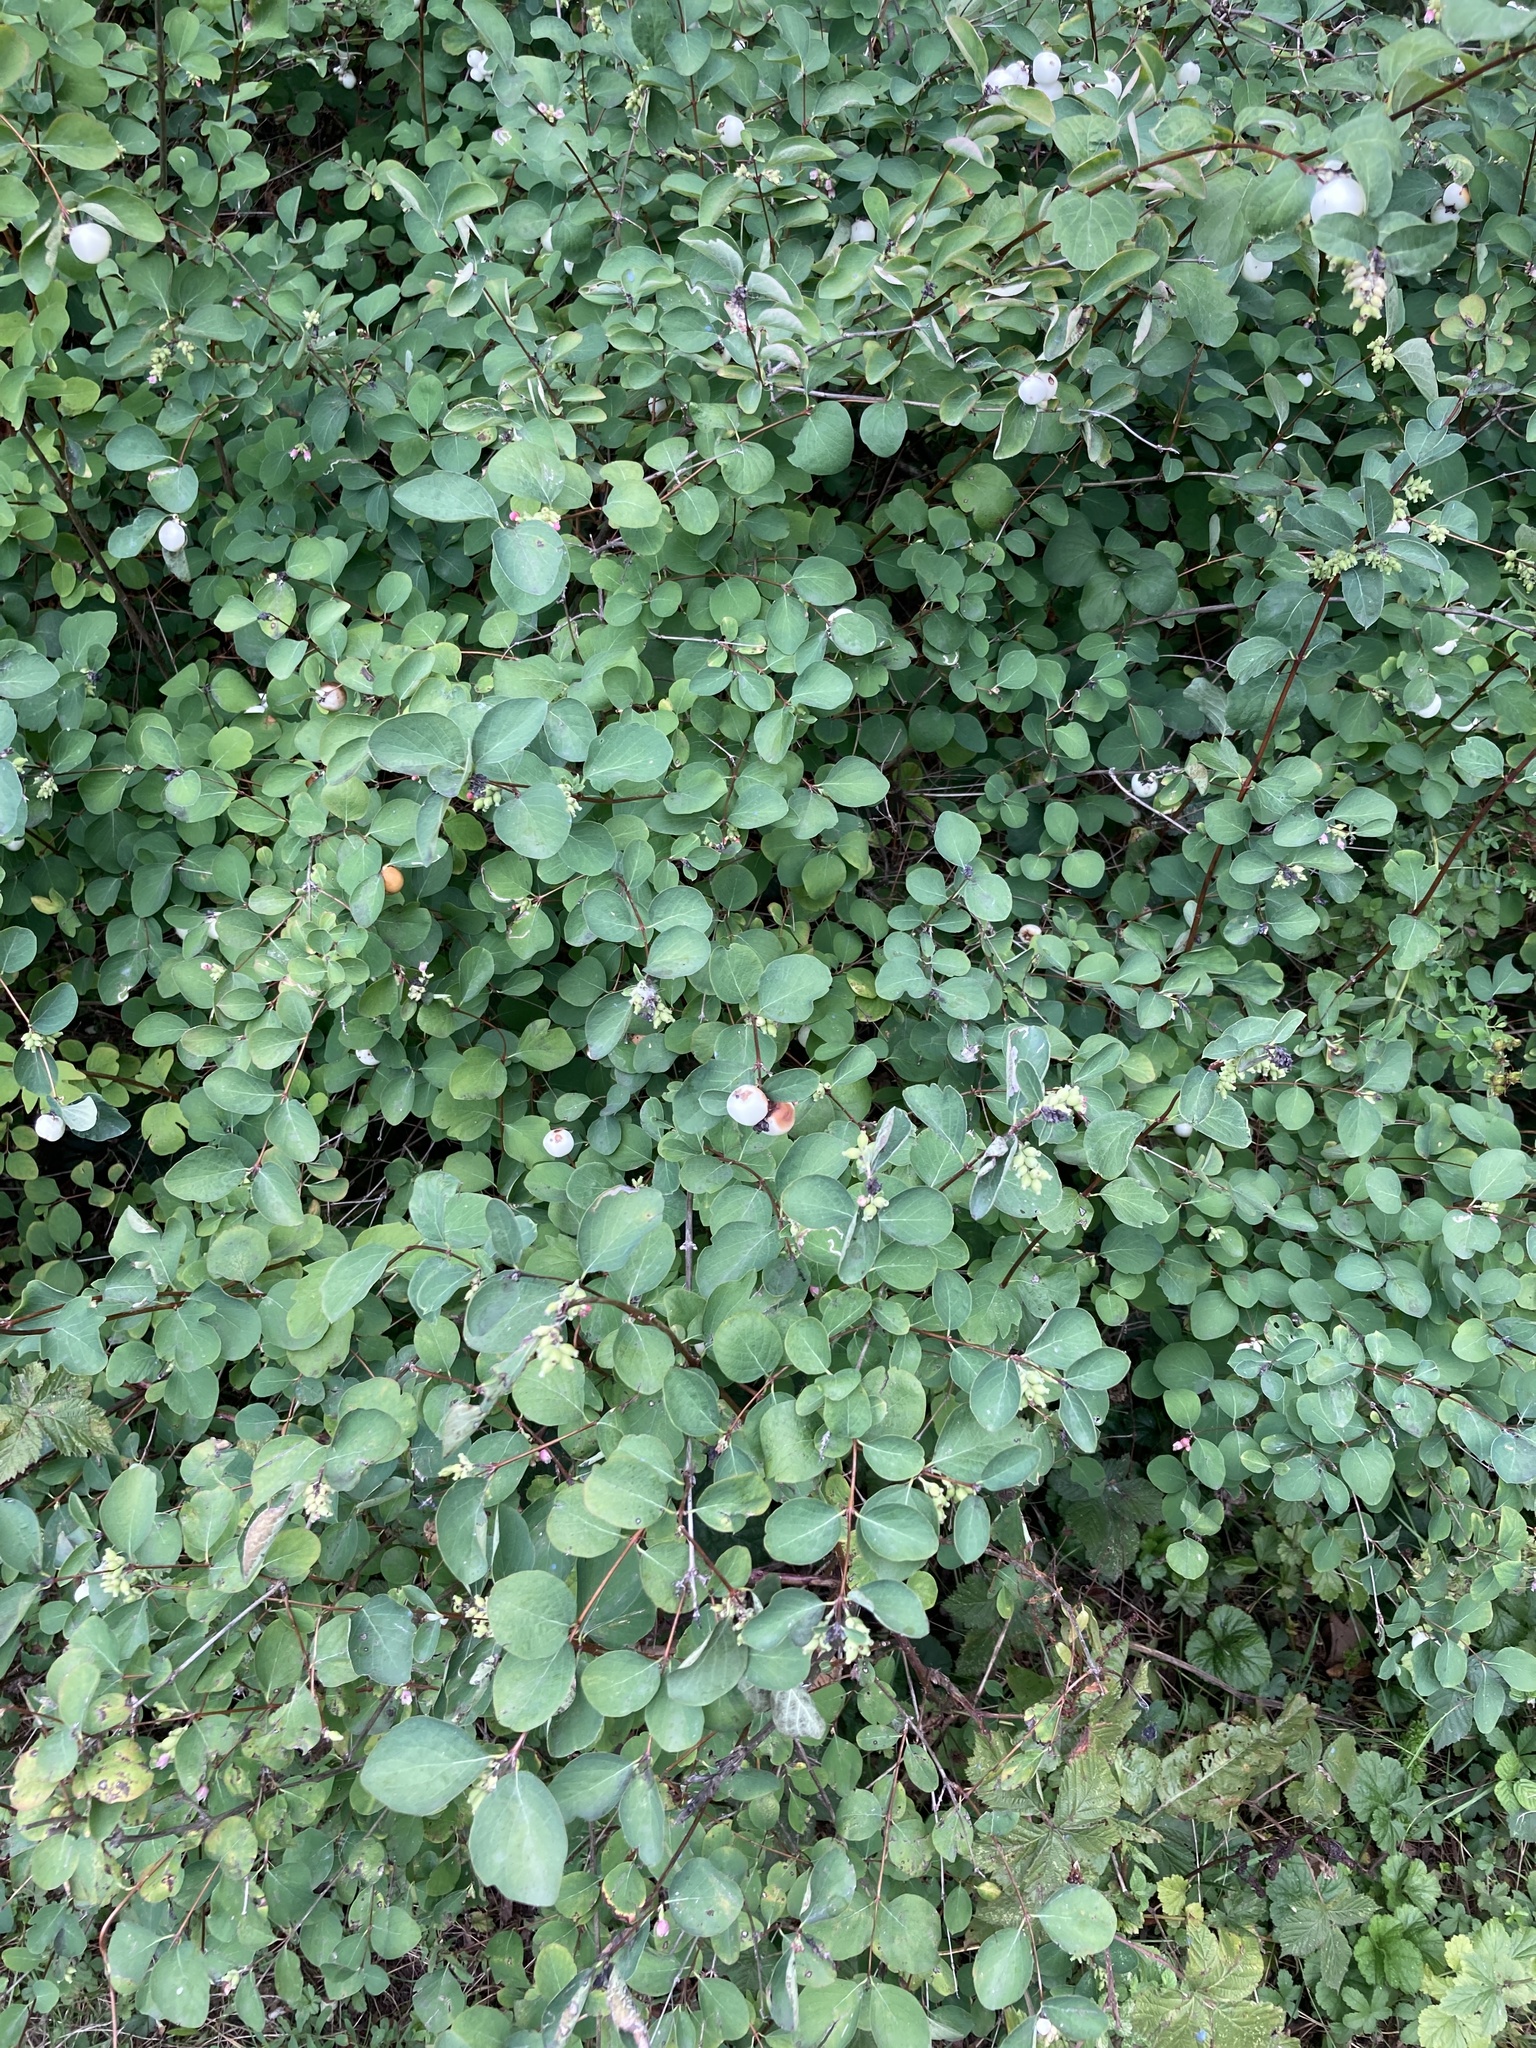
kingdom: Plantae
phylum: Tracheophyta
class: Magnoliopsida
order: Dipsacales
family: Caprifoliaceae
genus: Symphoricarpos
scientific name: Symphoricarpos albus
